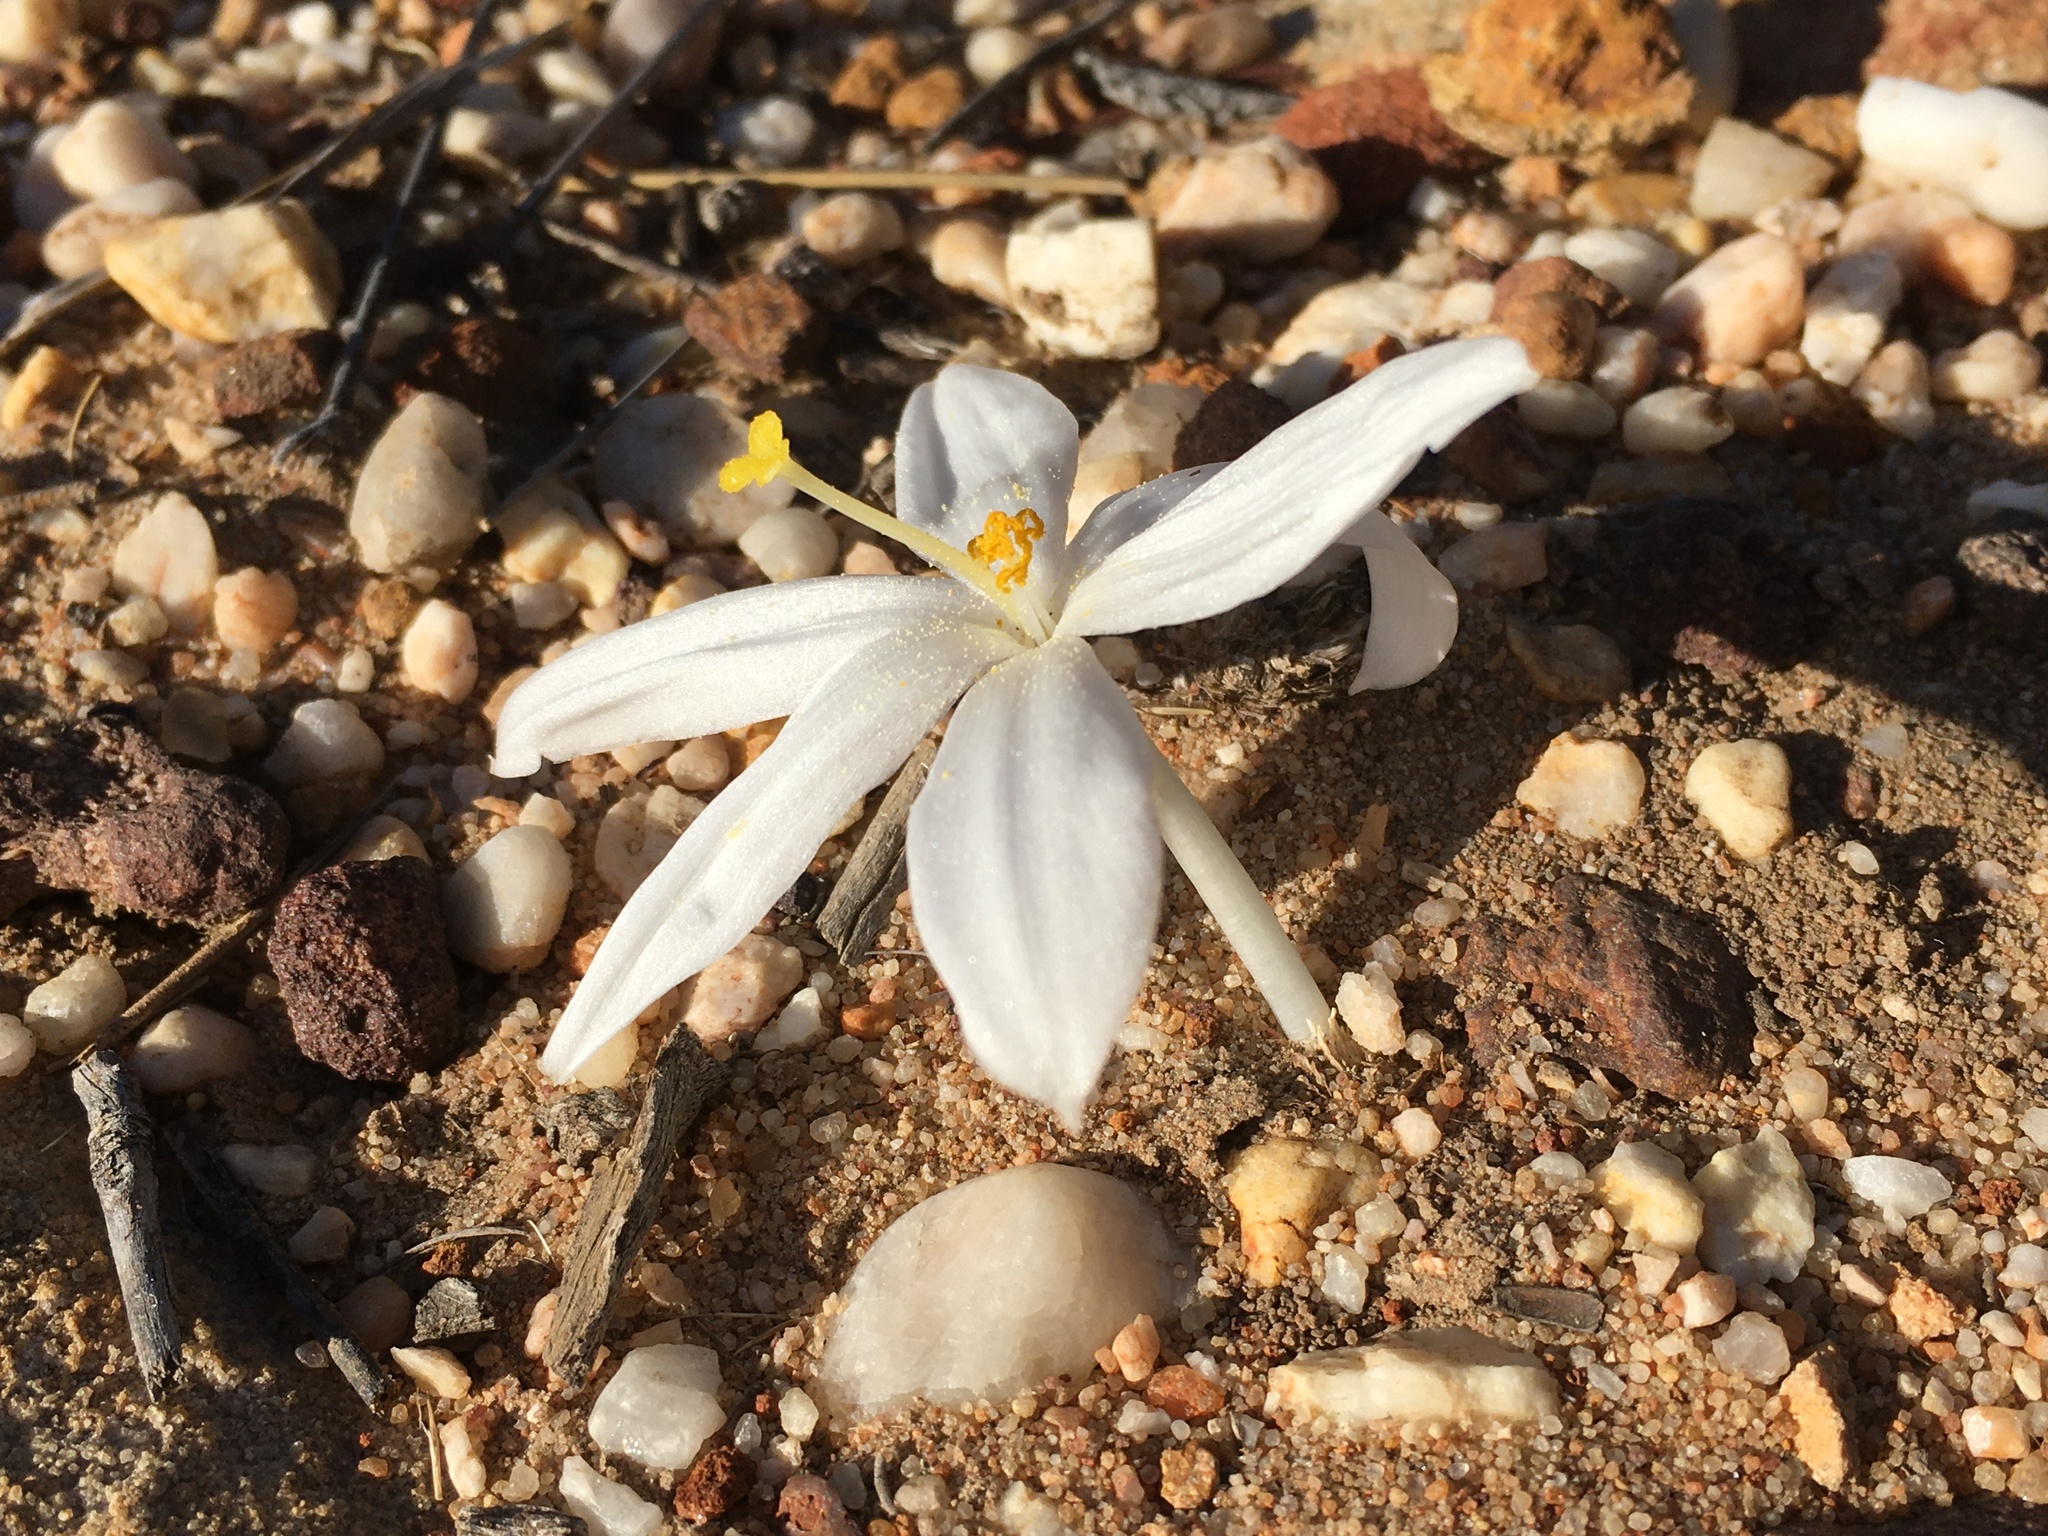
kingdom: Plantae
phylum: Tracheophyta
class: Liliopsida
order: Asparagales
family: Amaryllidaceae
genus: Gethyllis
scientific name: Gethyllis verticillata
